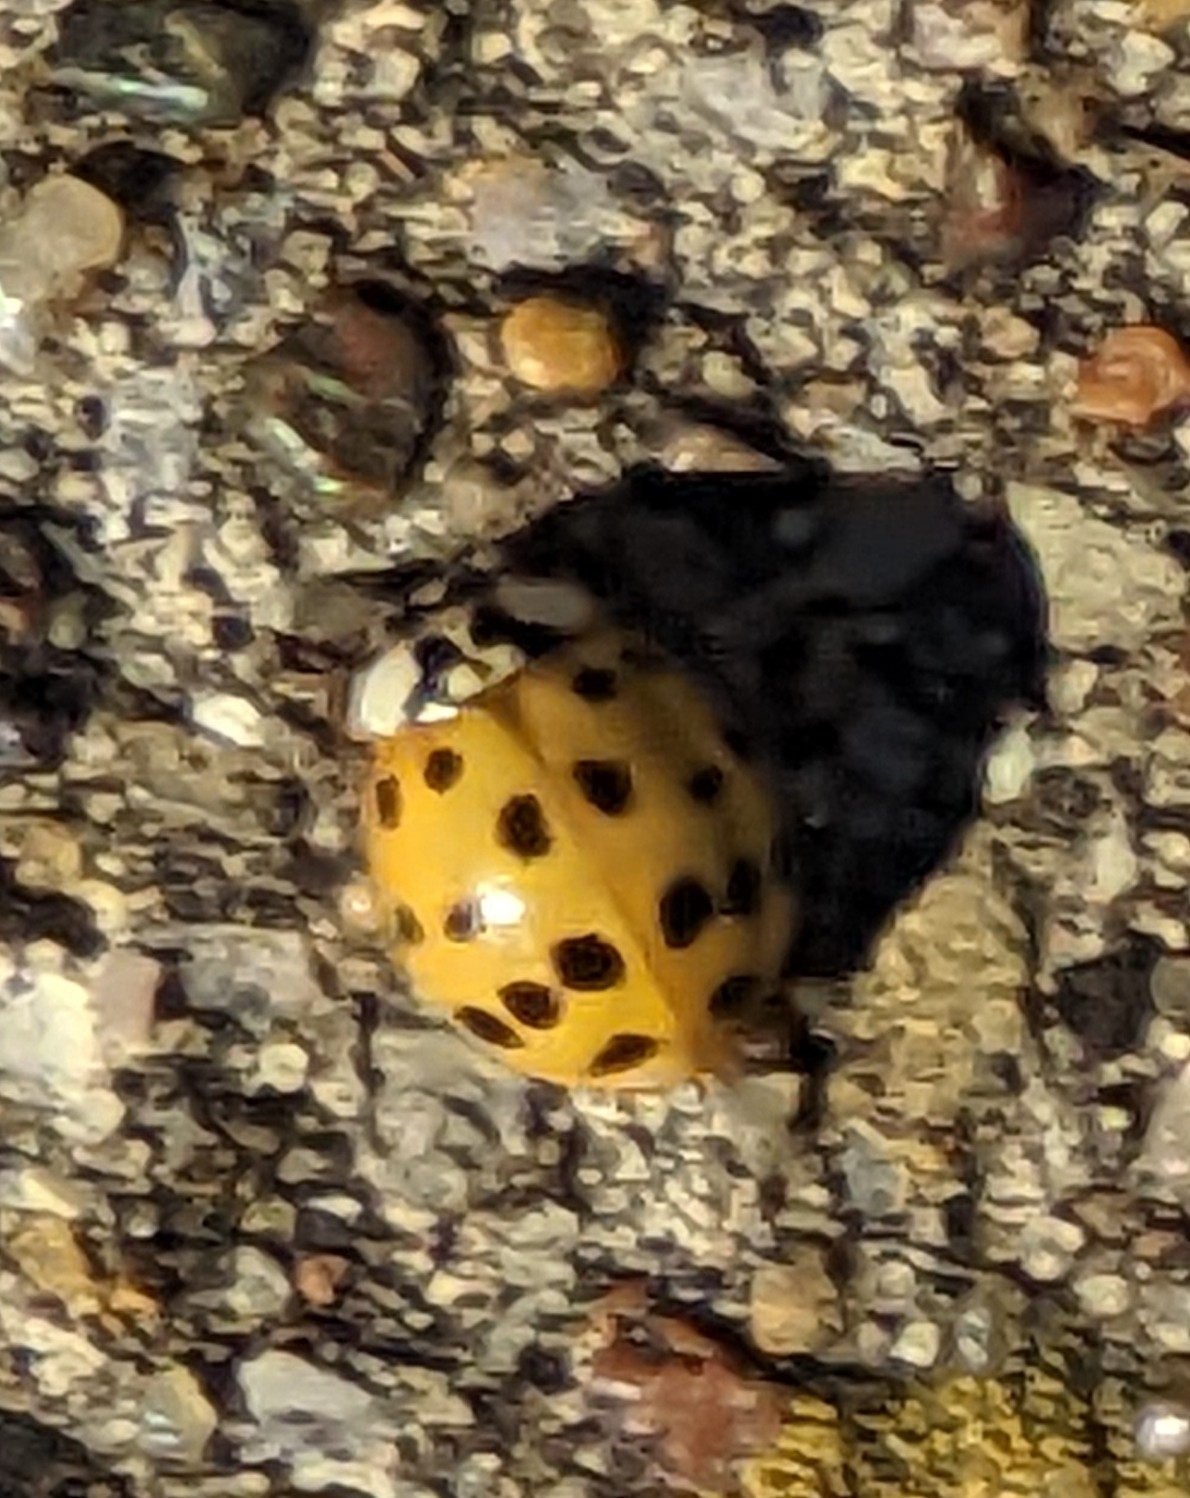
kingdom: Animalia
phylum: Arthropoda
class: Insecta
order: Coleoptera
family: Coccinellidae
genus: Harmonia
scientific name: Harmonia axyridis
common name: Harlequin ladybird
